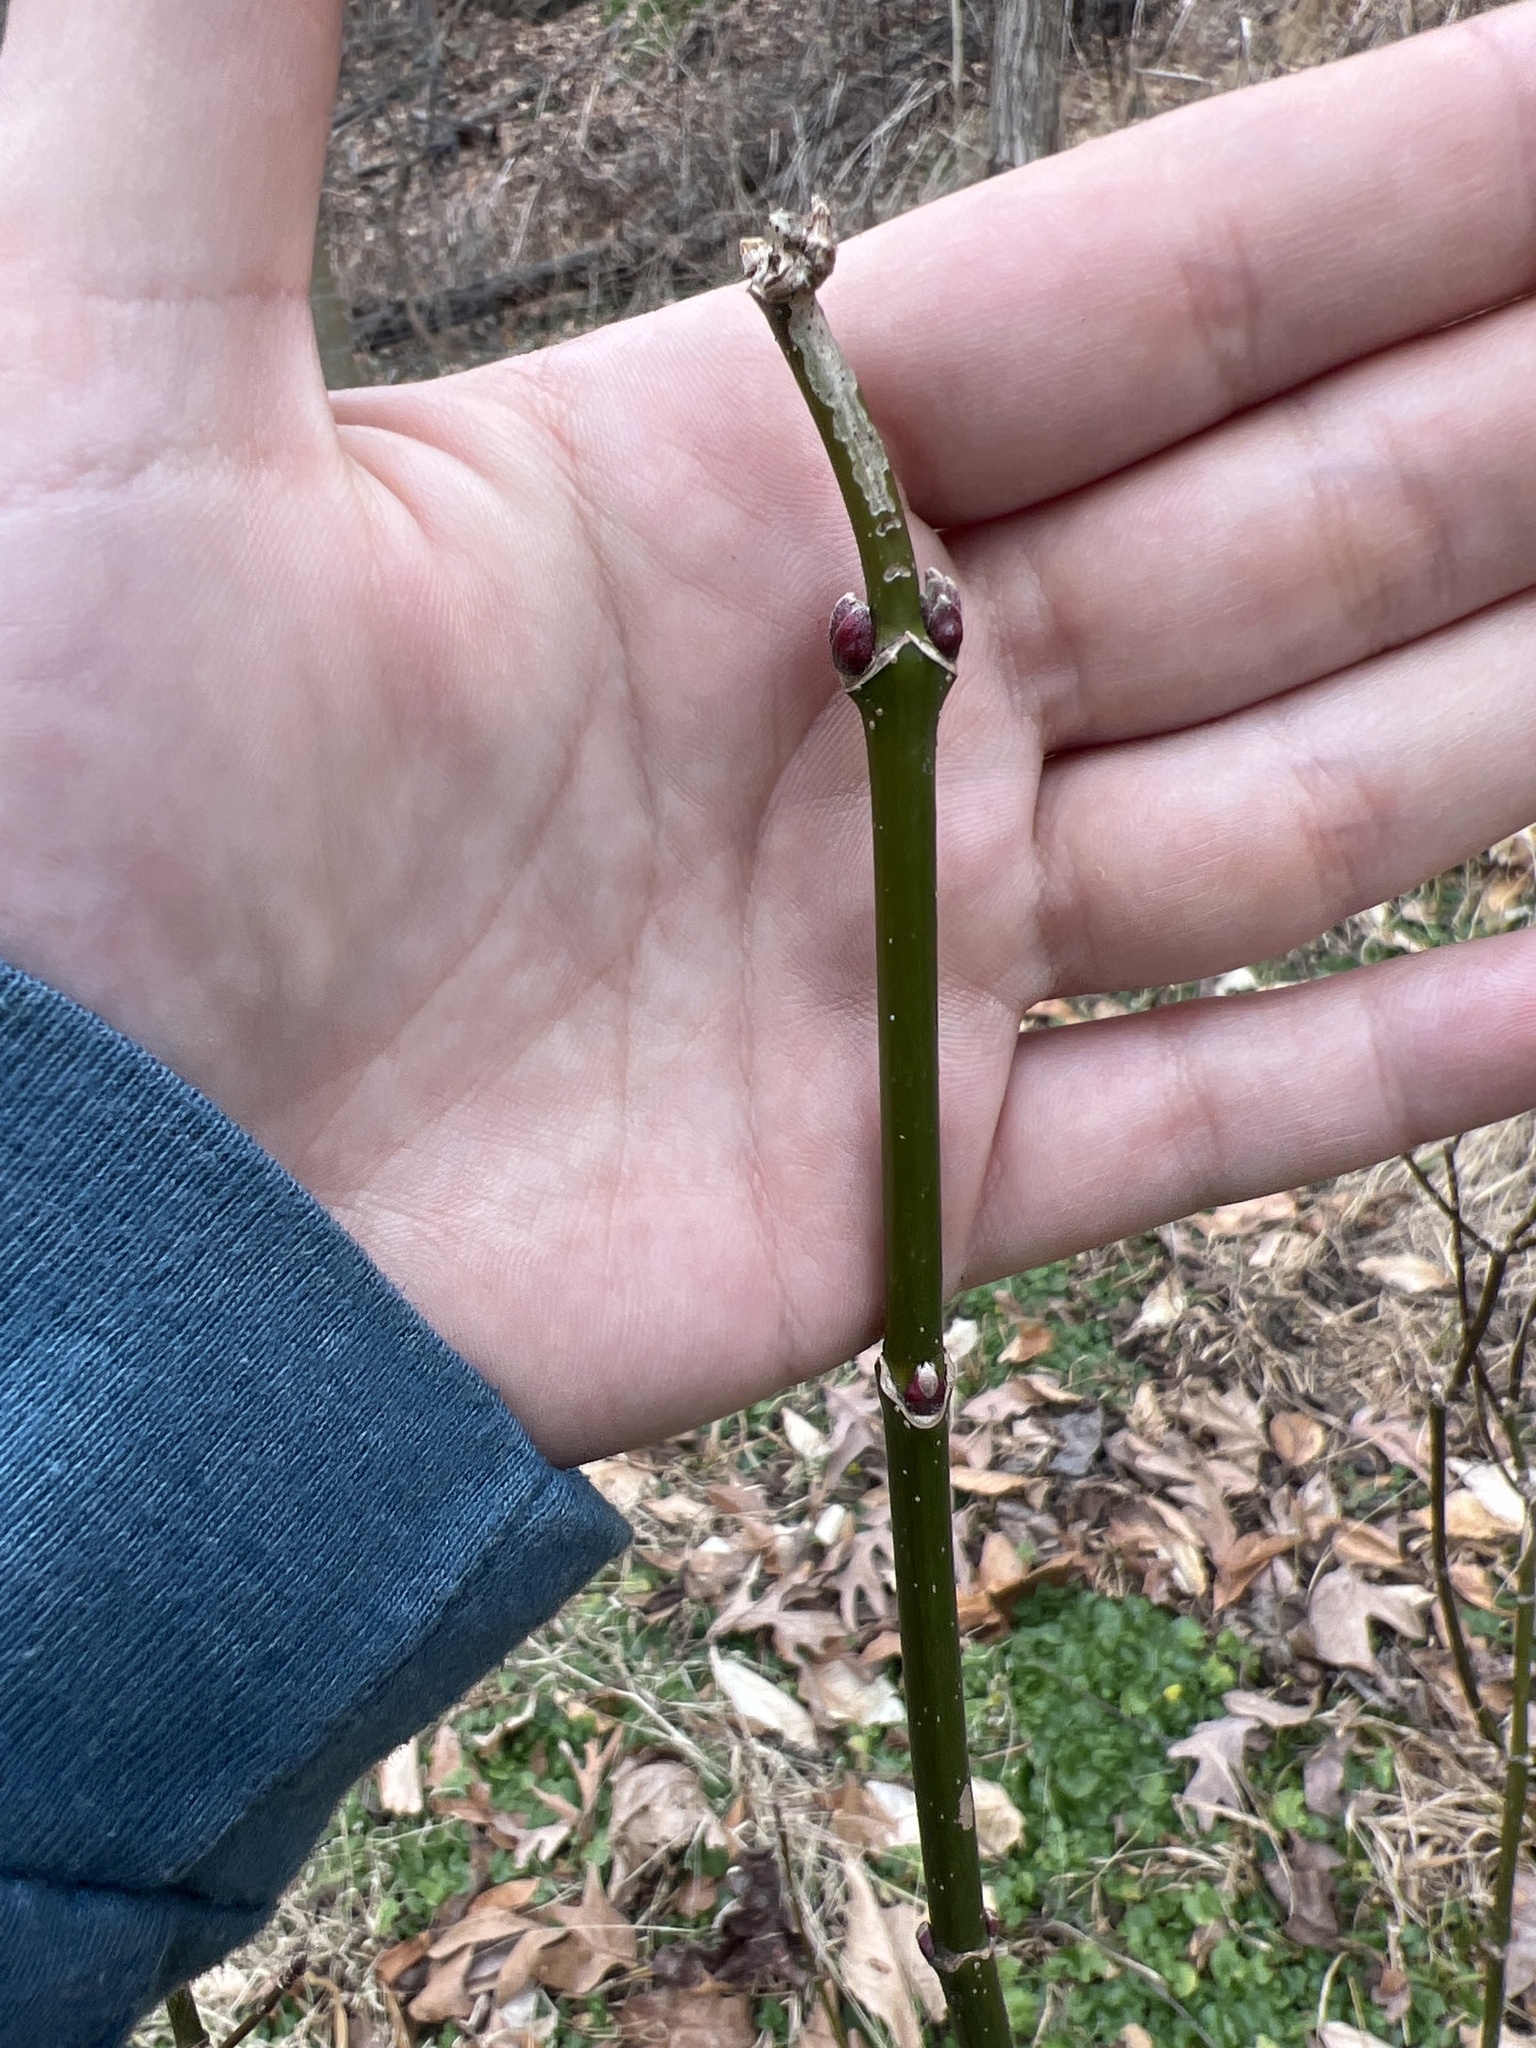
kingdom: Plantae
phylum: Tracheophyta
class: Magnoliopsida
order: Sapindales
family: Sapindaceae
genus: Acer
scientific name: Acer negundo
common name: Ashleaf maple
